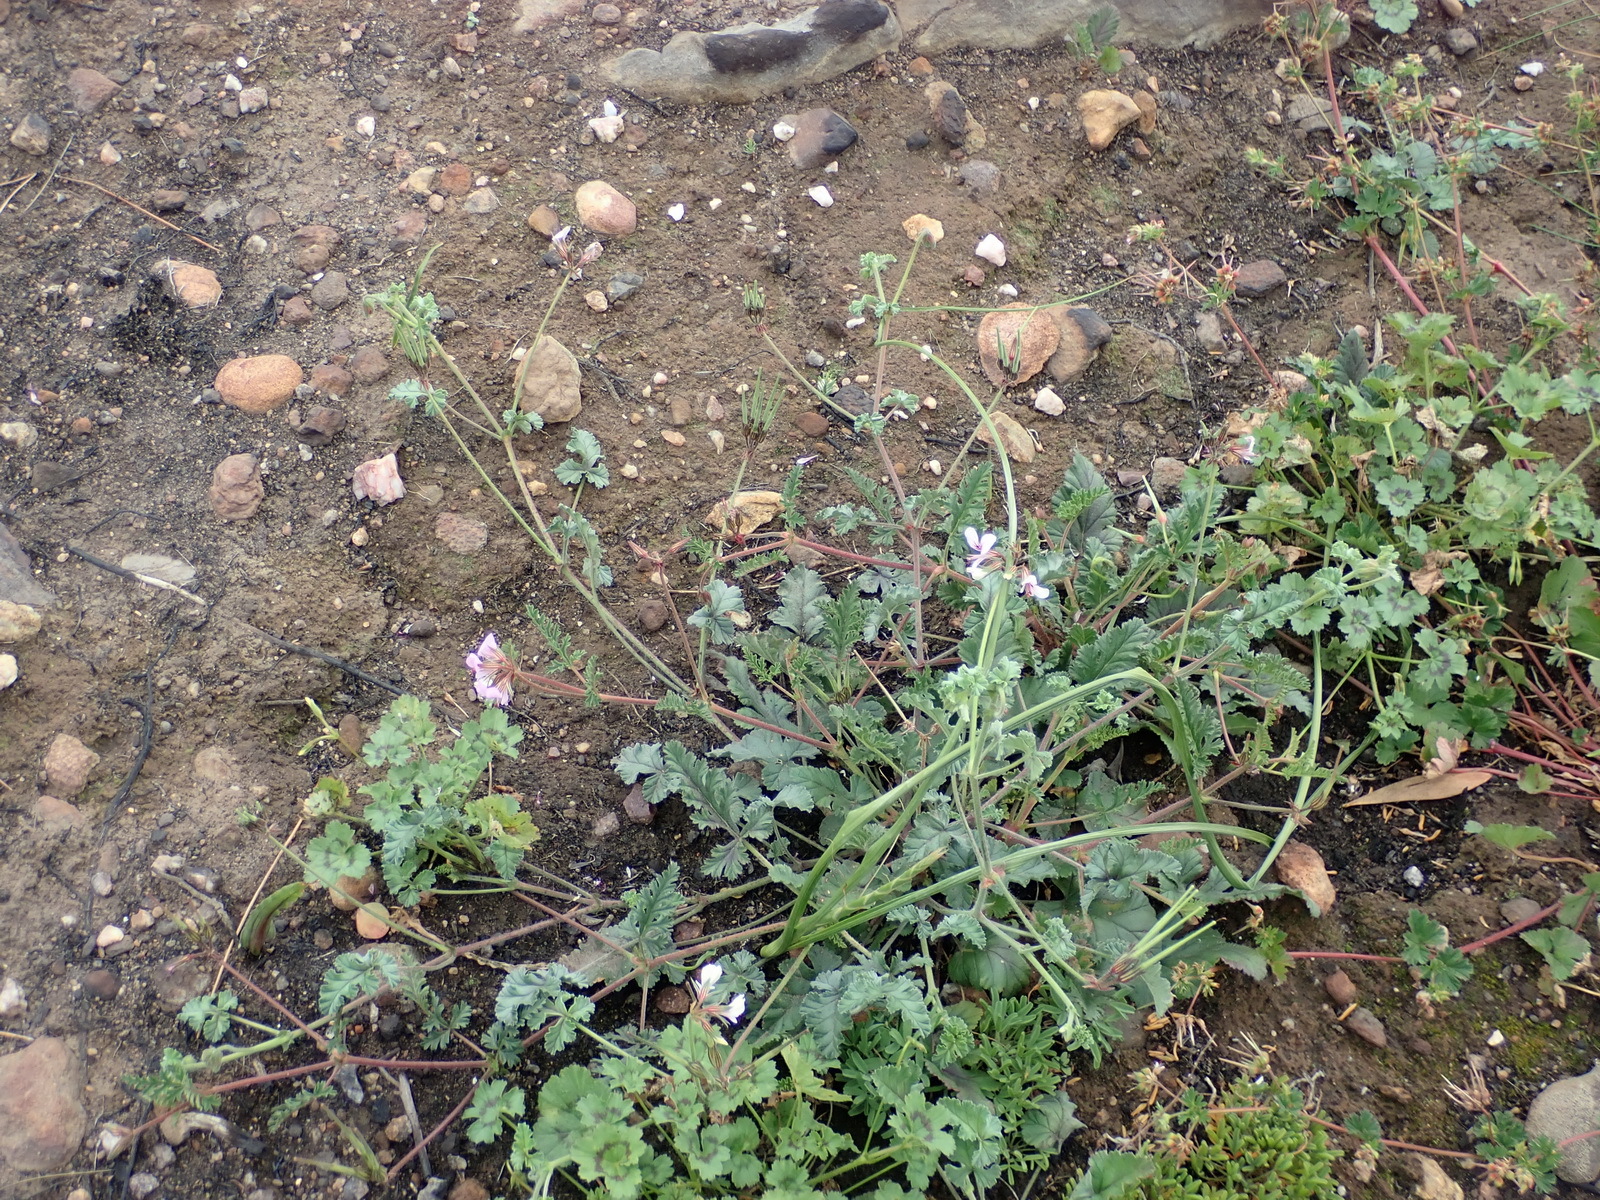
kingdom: Plantae
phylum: Tracheophyta
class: Magnoliopsida
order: Geraniales
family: Geraniaceae
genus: Pelargonium
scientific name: Pelargonium candicans
